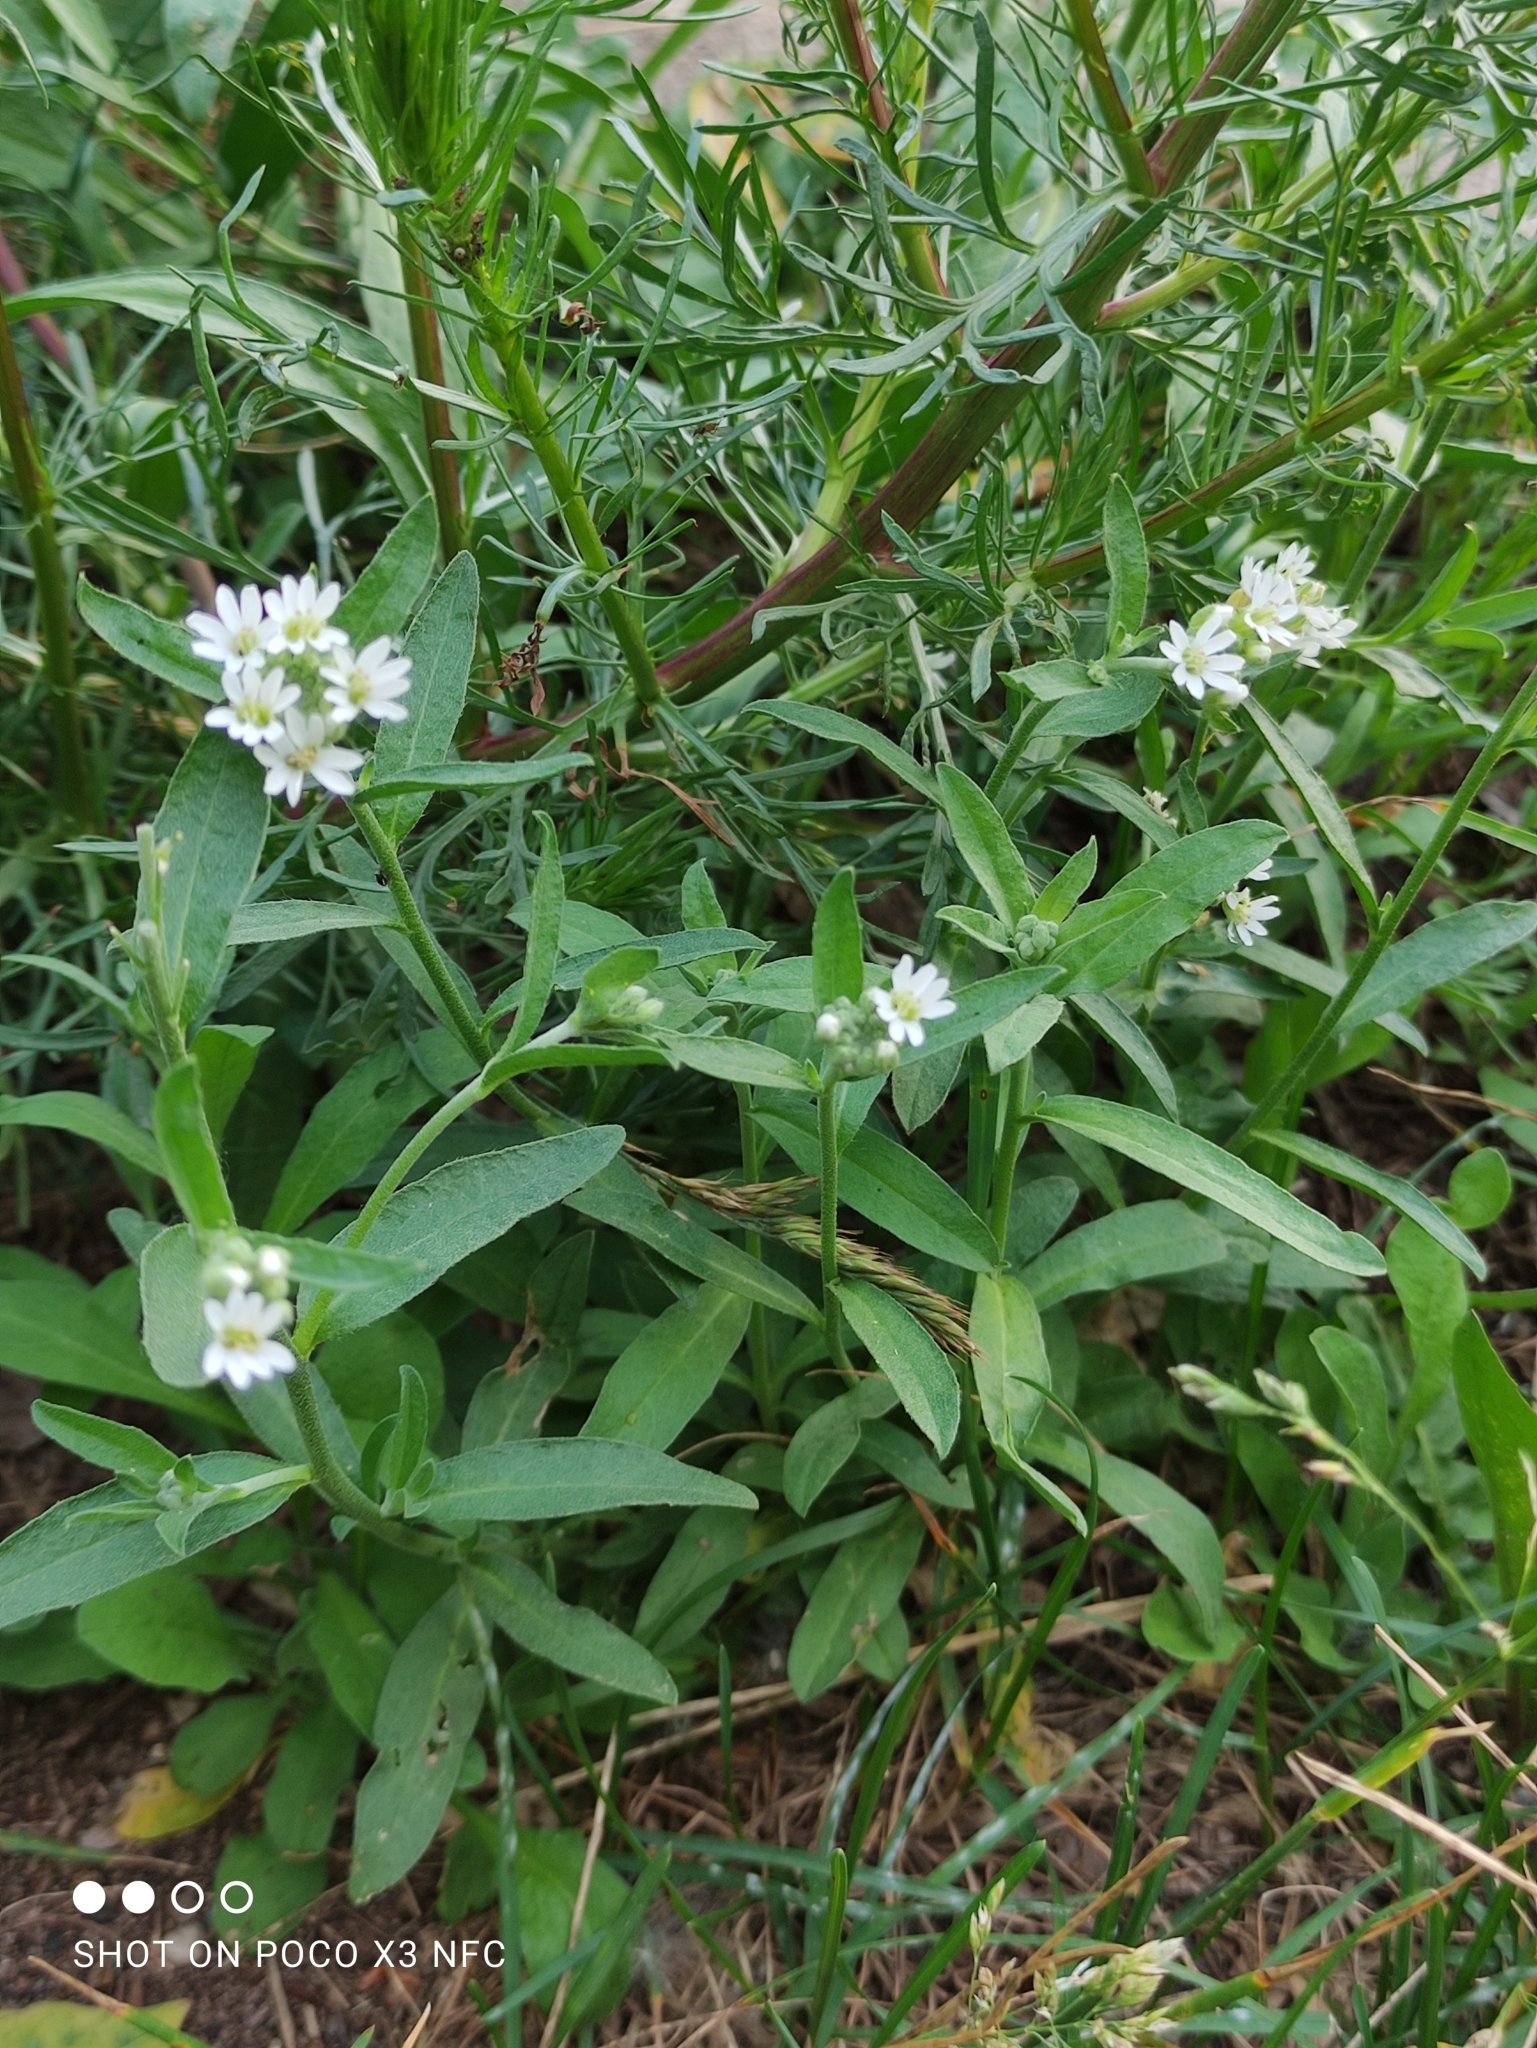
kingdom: Plantae
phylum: Tracheophyta
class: Magnoliopsida
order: Brassicales
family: Brassicaceae
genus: Berteroa
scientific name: Berteroa incana
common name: Hoary alison
